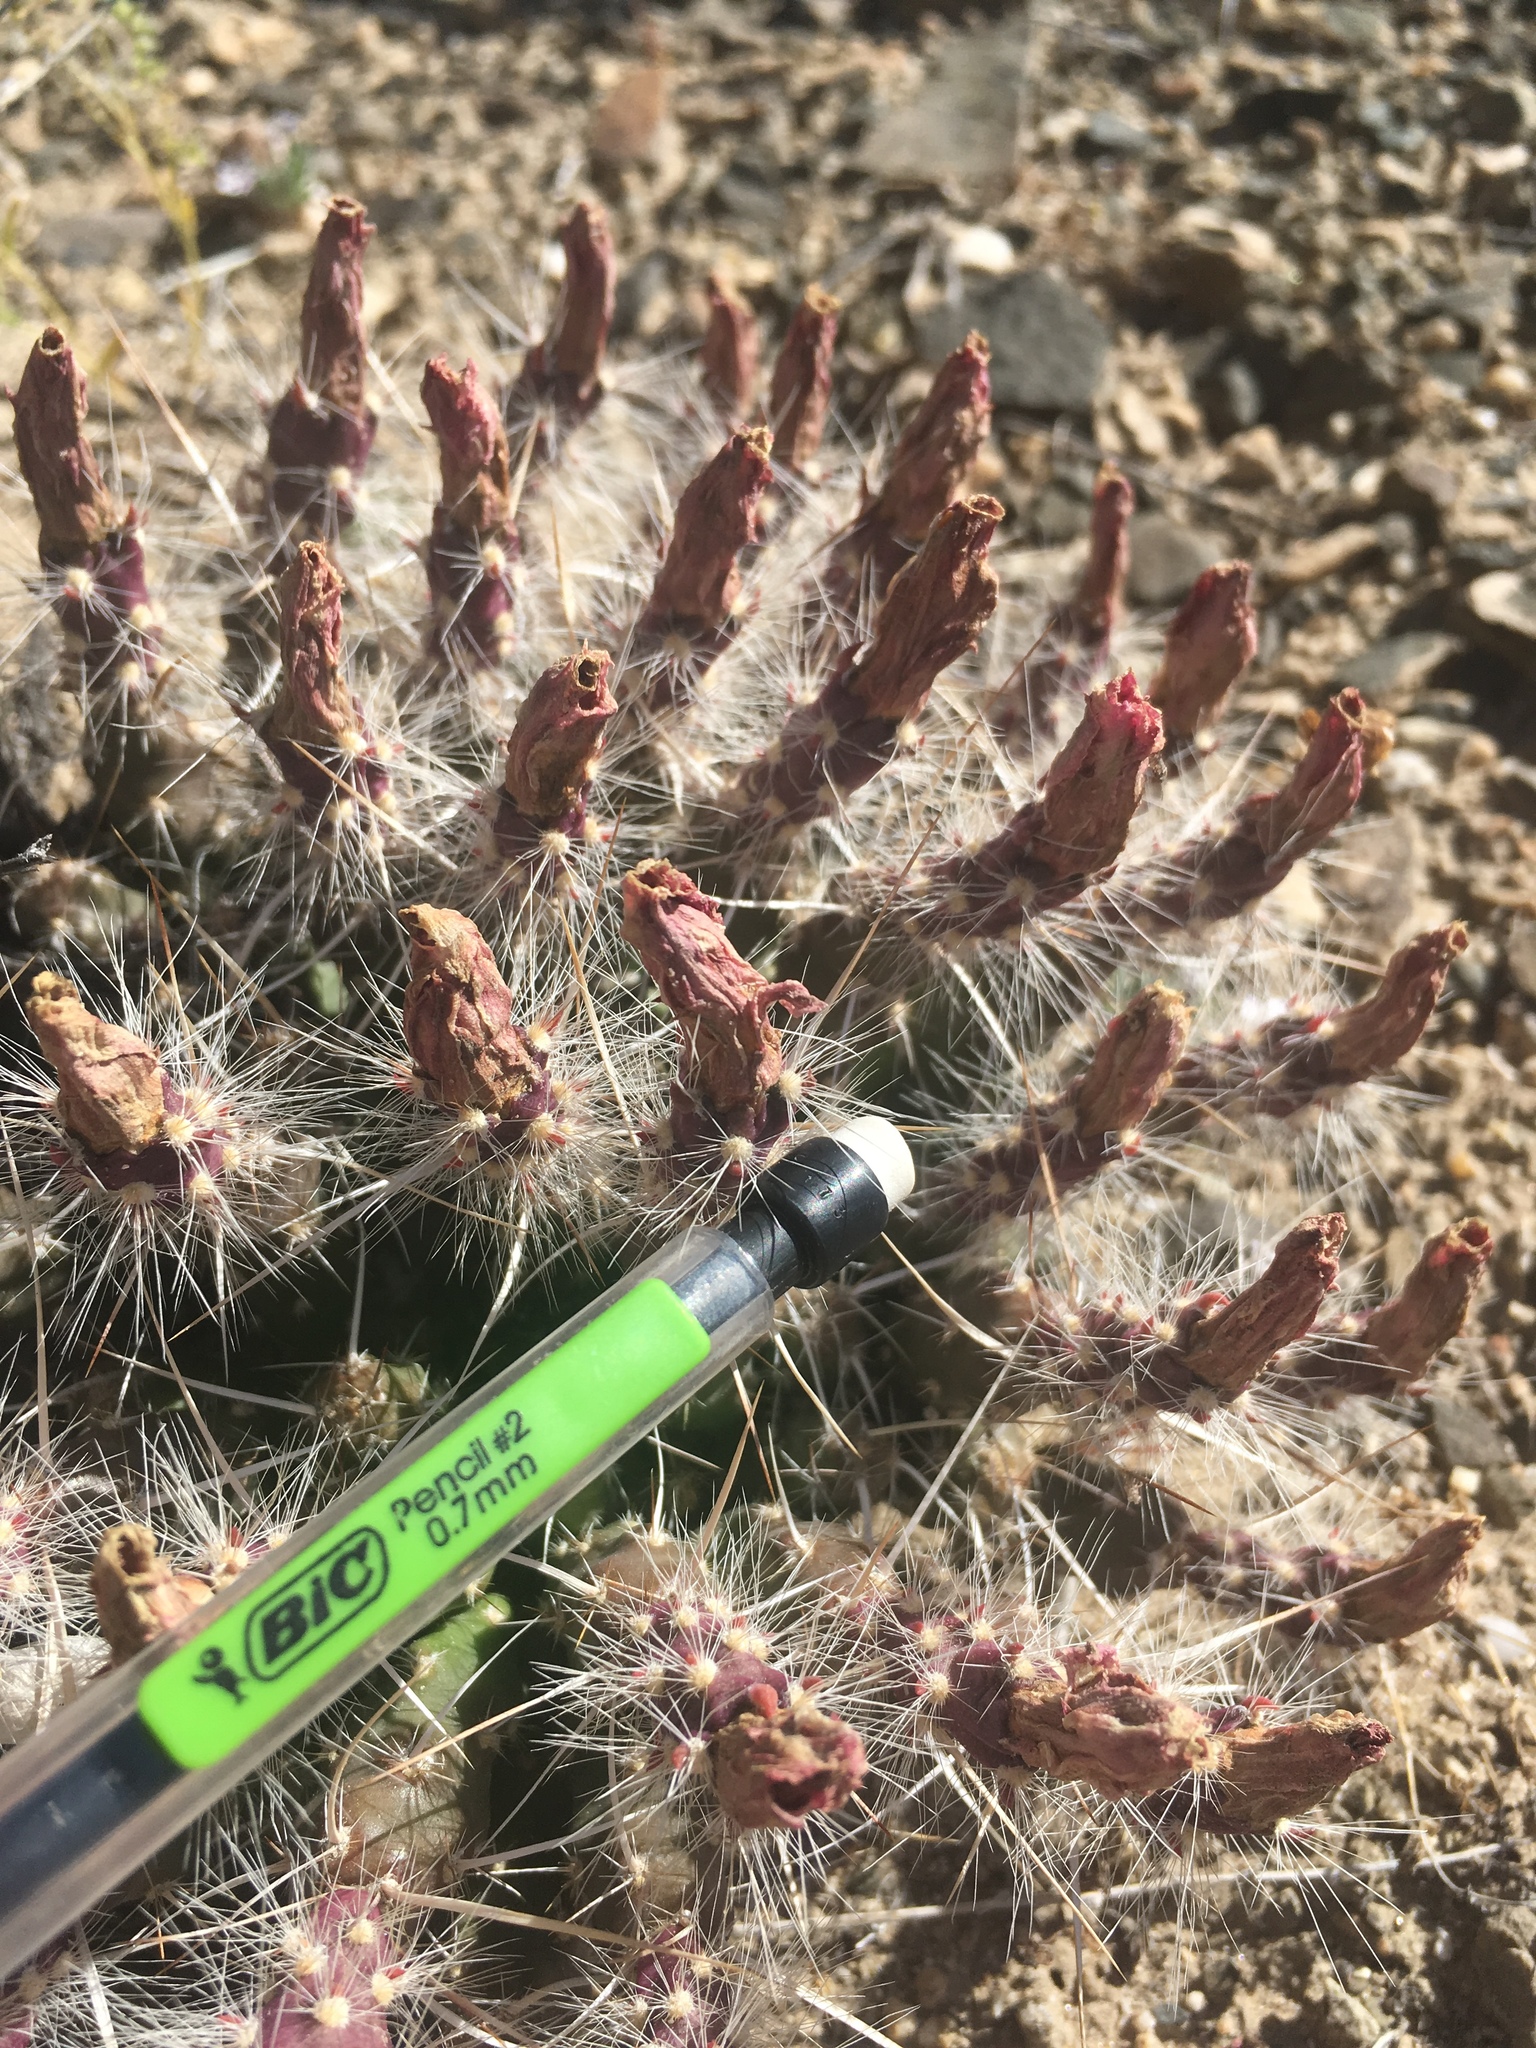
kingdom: Plantae
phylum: Tracheophyta
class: Magnoliopsida
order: Caryophyllales
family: Cactaceae
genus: Micropuntia
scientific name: Micropuntia pulchella
